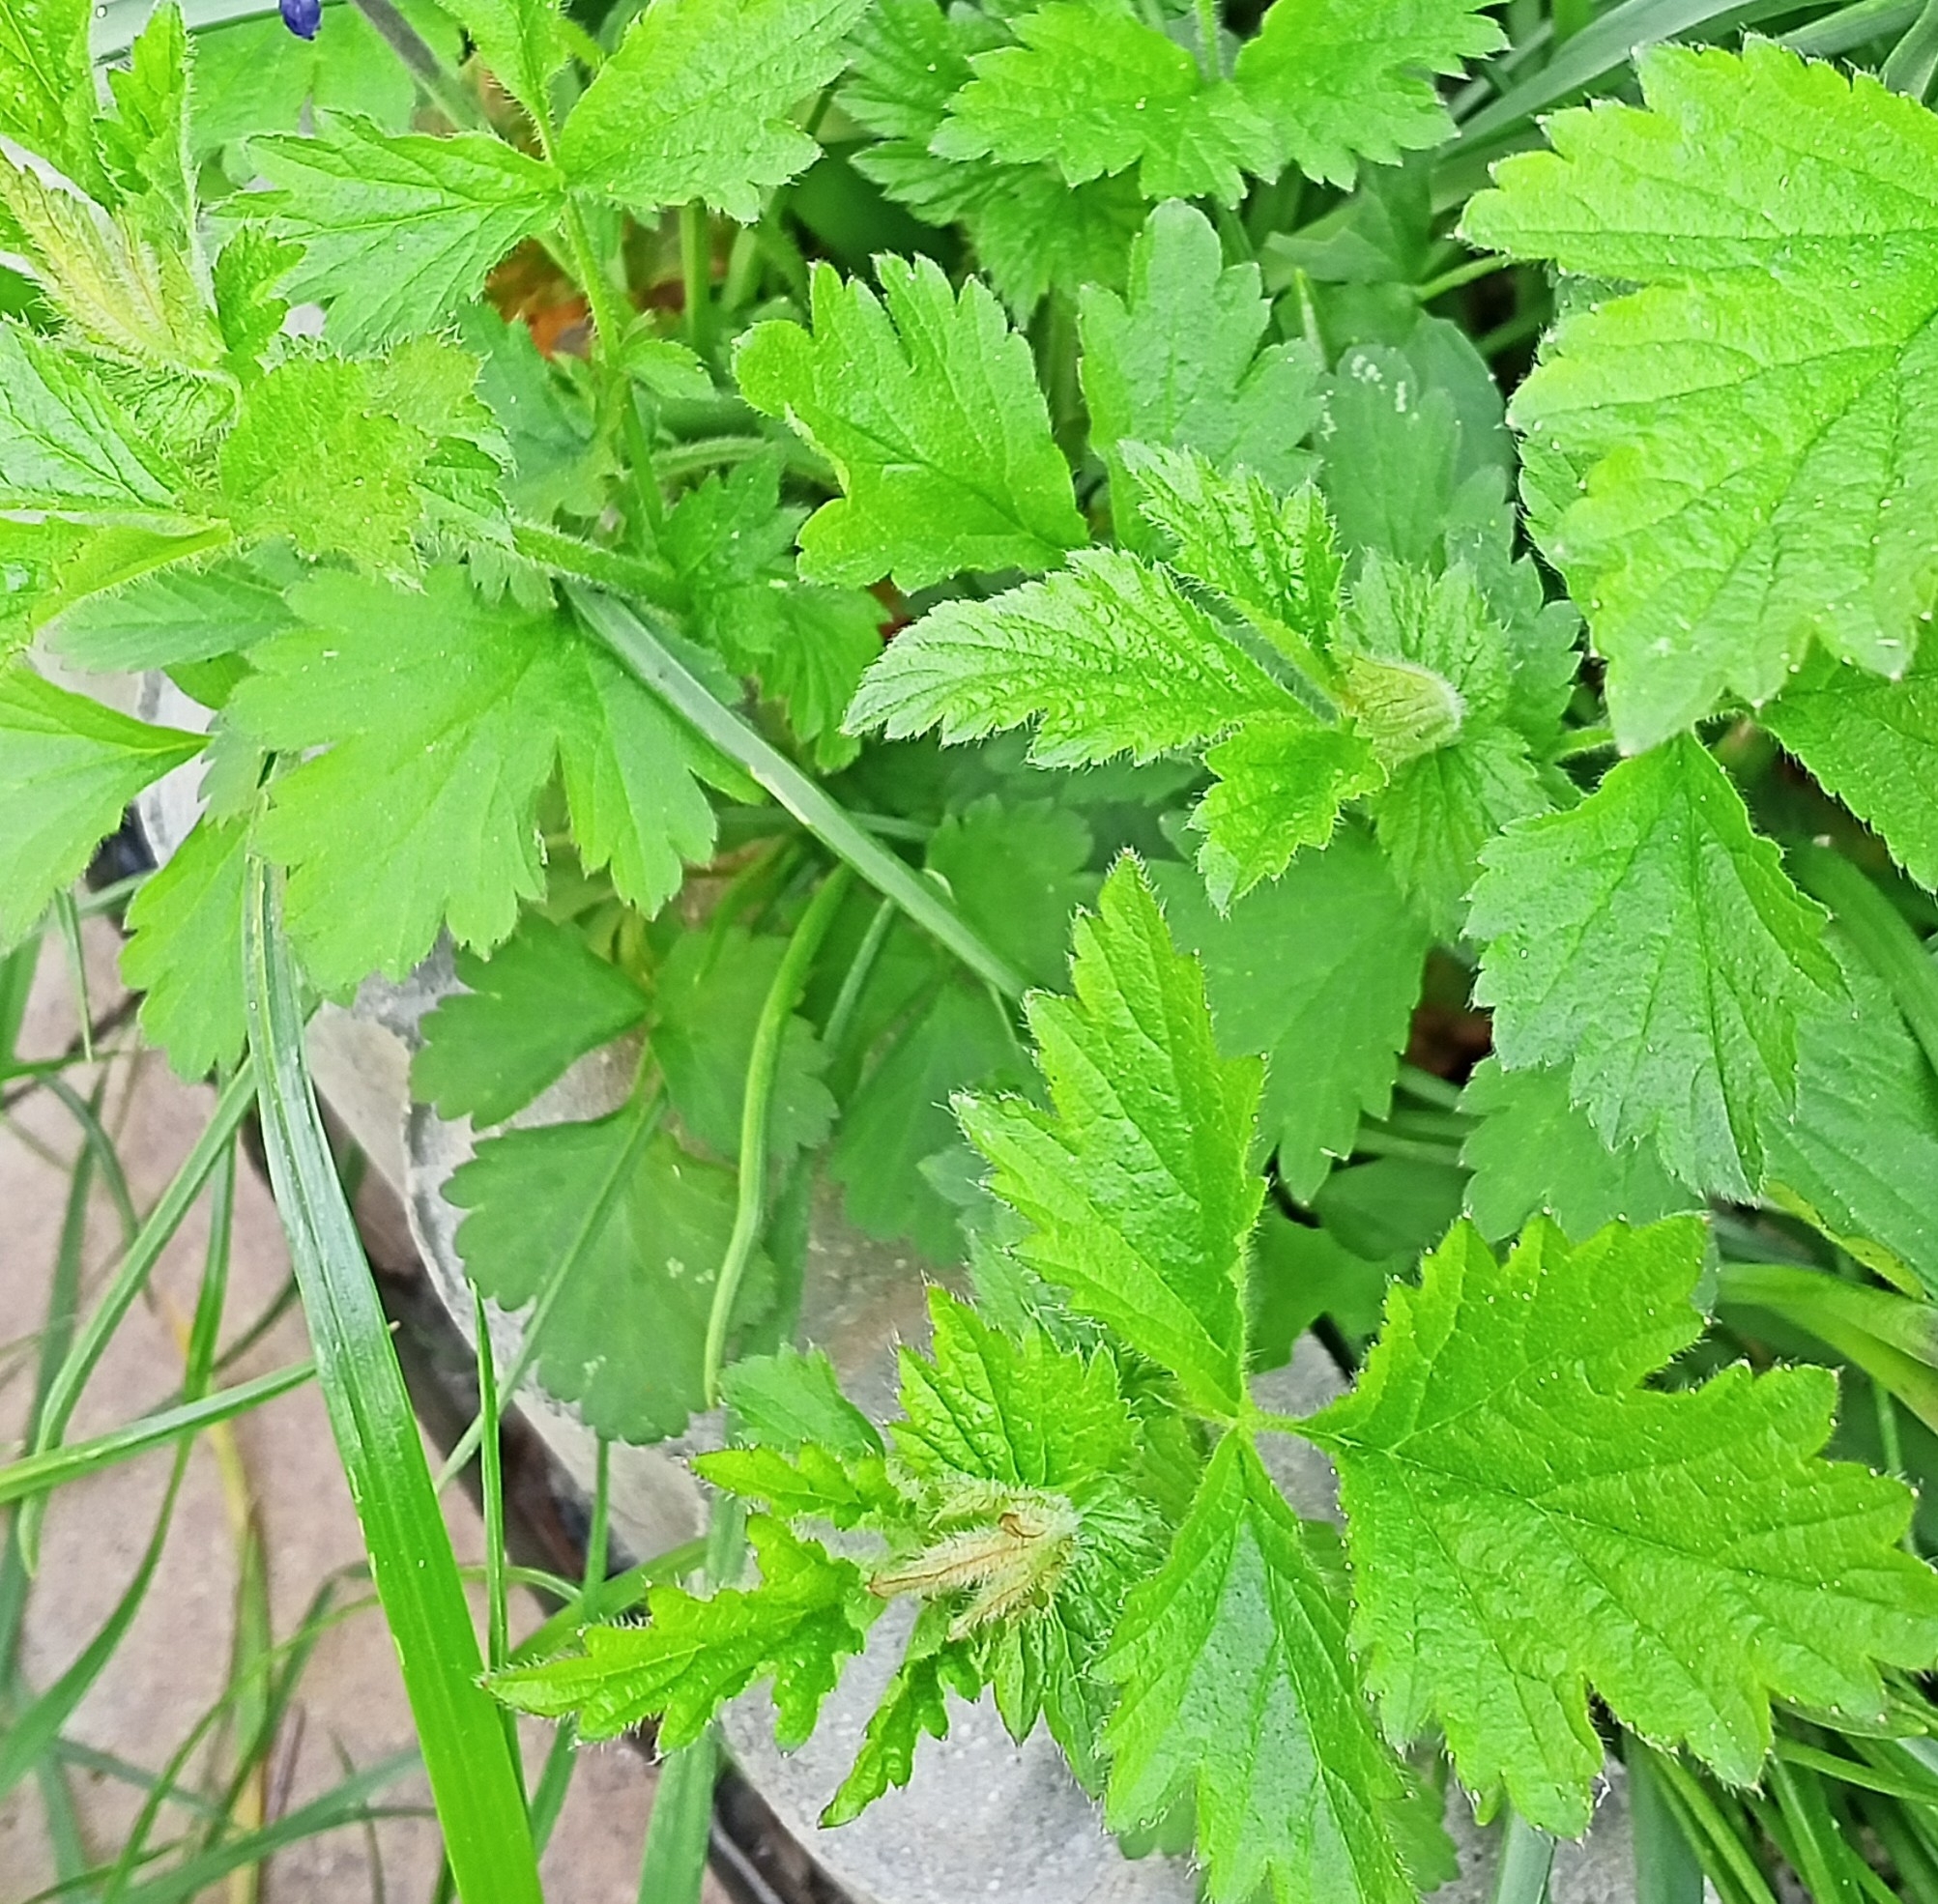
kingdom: Plantae
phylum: Tracheophyta
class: Magnoliopsida
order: Rosales
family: Rosaceae
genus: Geum
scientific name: Geum urbanum
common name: Wood avens
